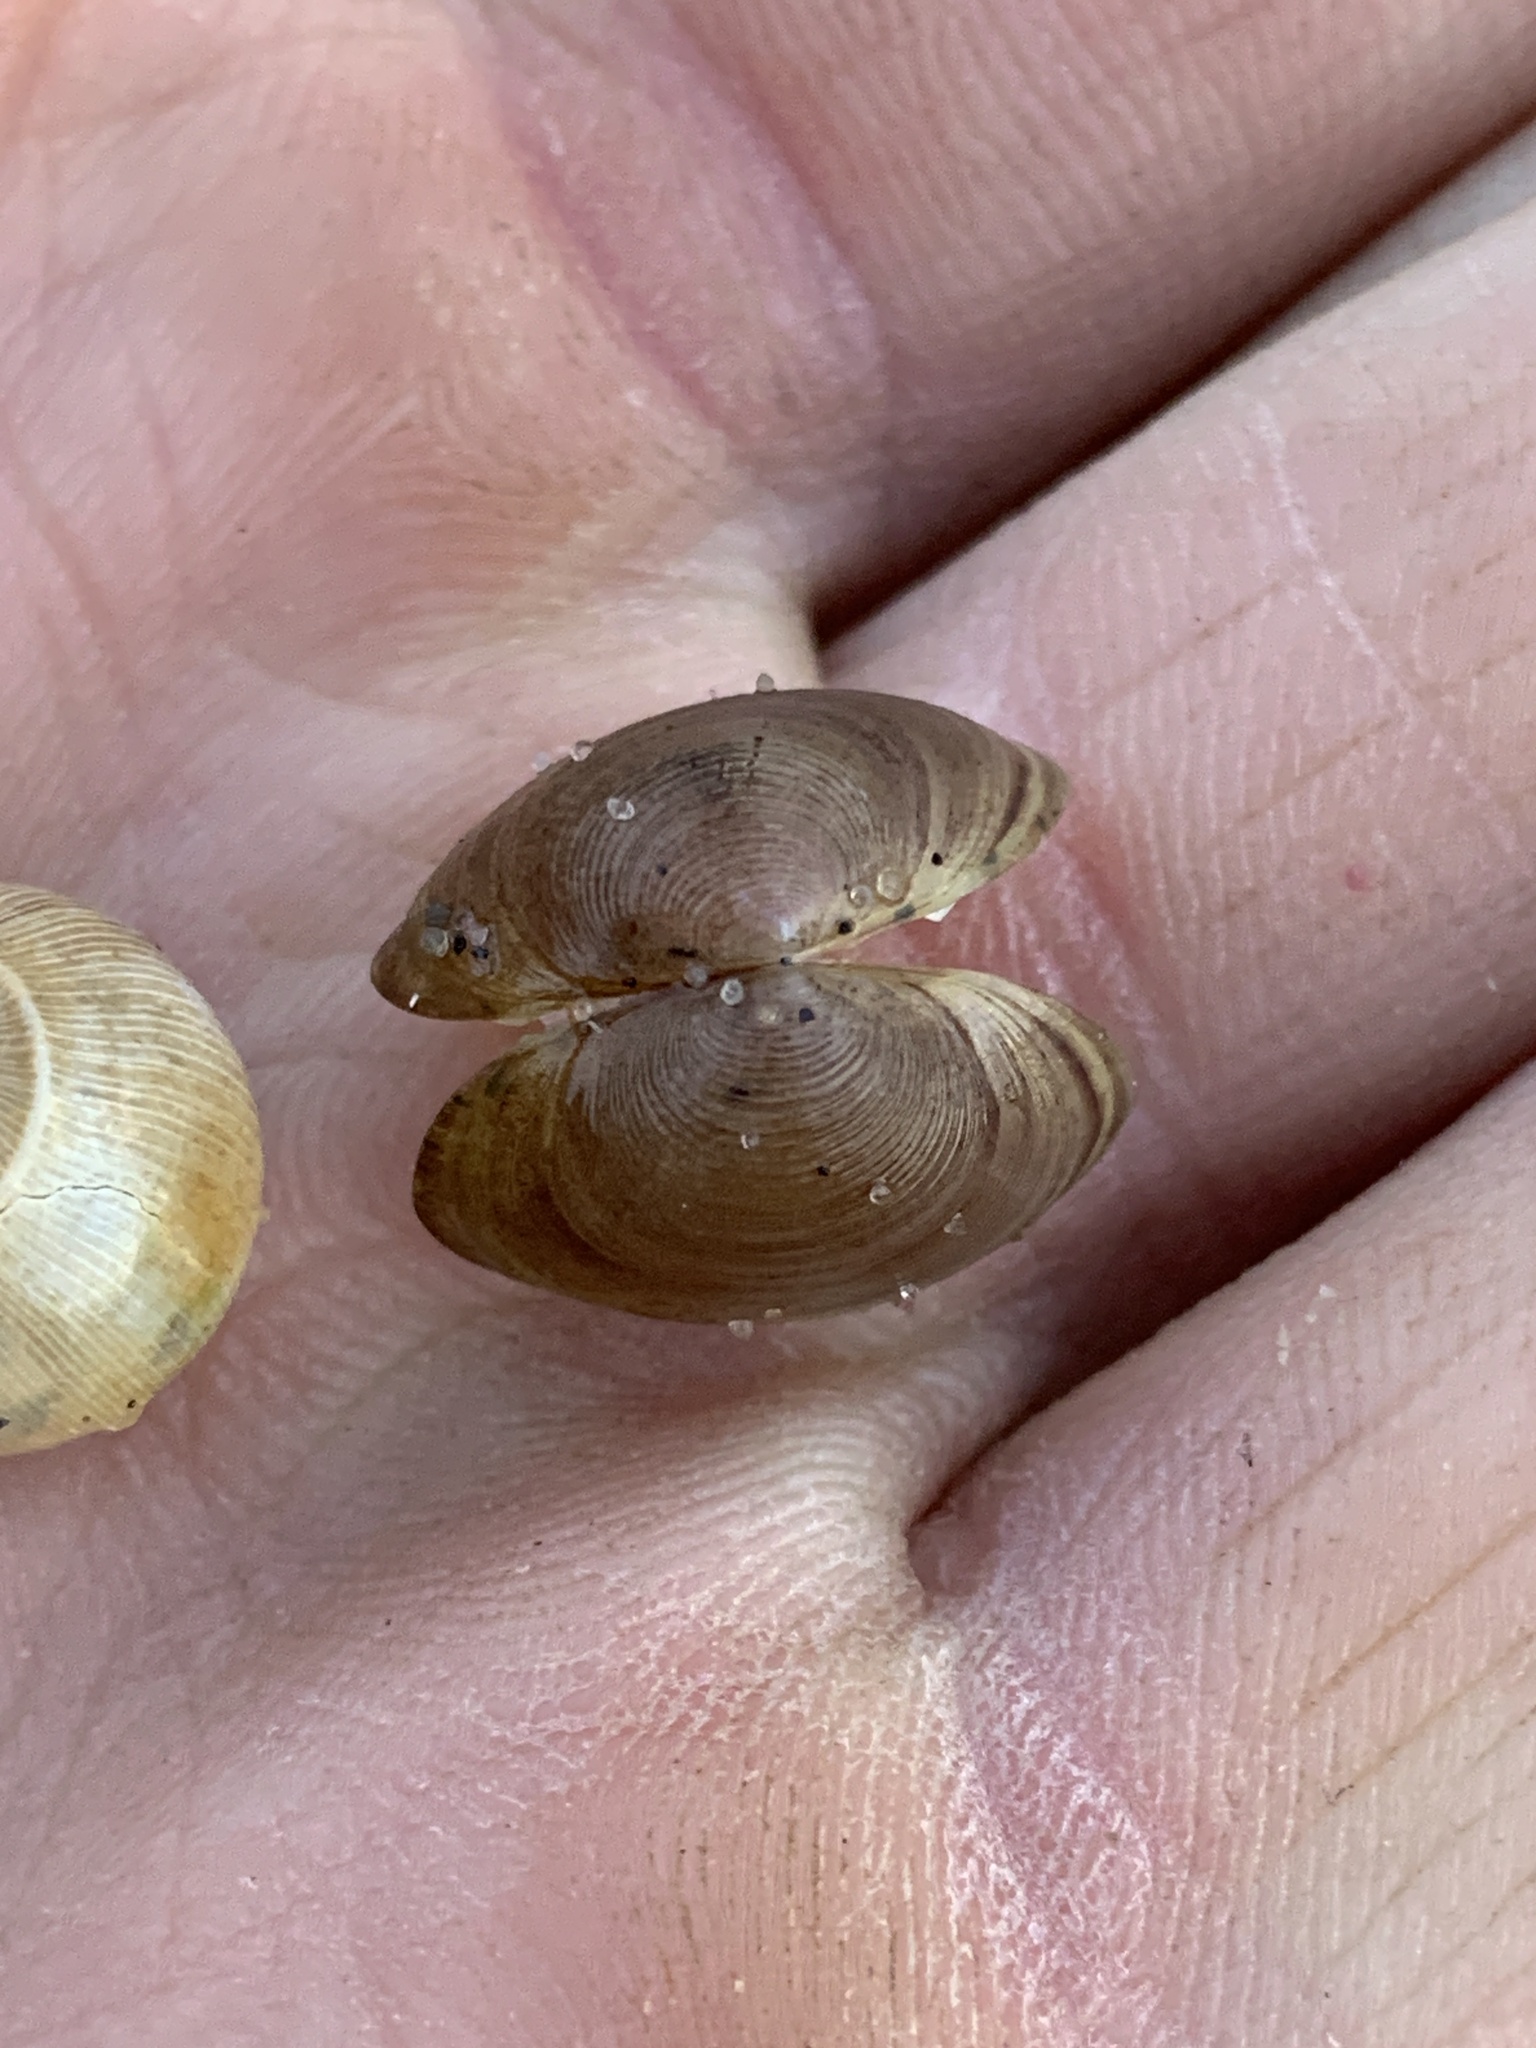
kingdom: Animalia
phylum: Mollusca
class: Bivalvia
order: Sphaeriida
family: Sphaeriidae
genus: Sphaerium
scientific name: Sphaerium simile
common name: Grooved fingernailclam
